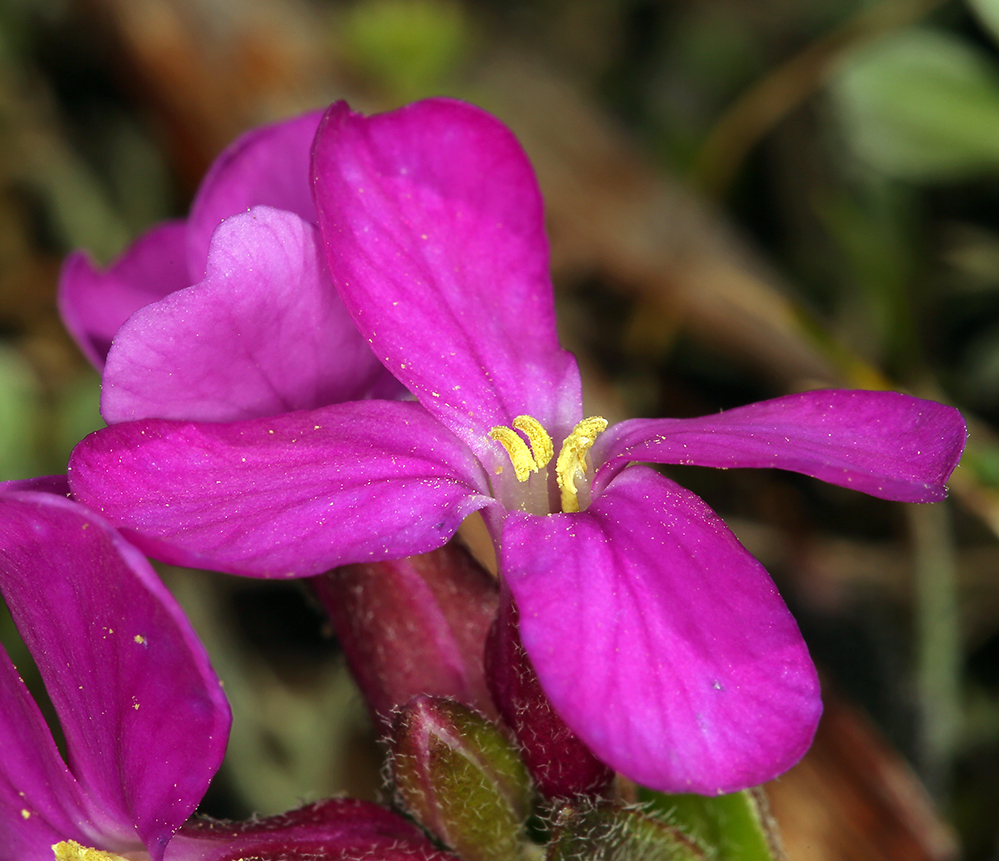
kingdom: Plantae
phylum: Tracheophyta
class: Magnoliopsida
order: Brassicales
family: Brassicaceae
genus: Arabis
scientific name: Arabis blepharophylla
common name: Rose rockcress
